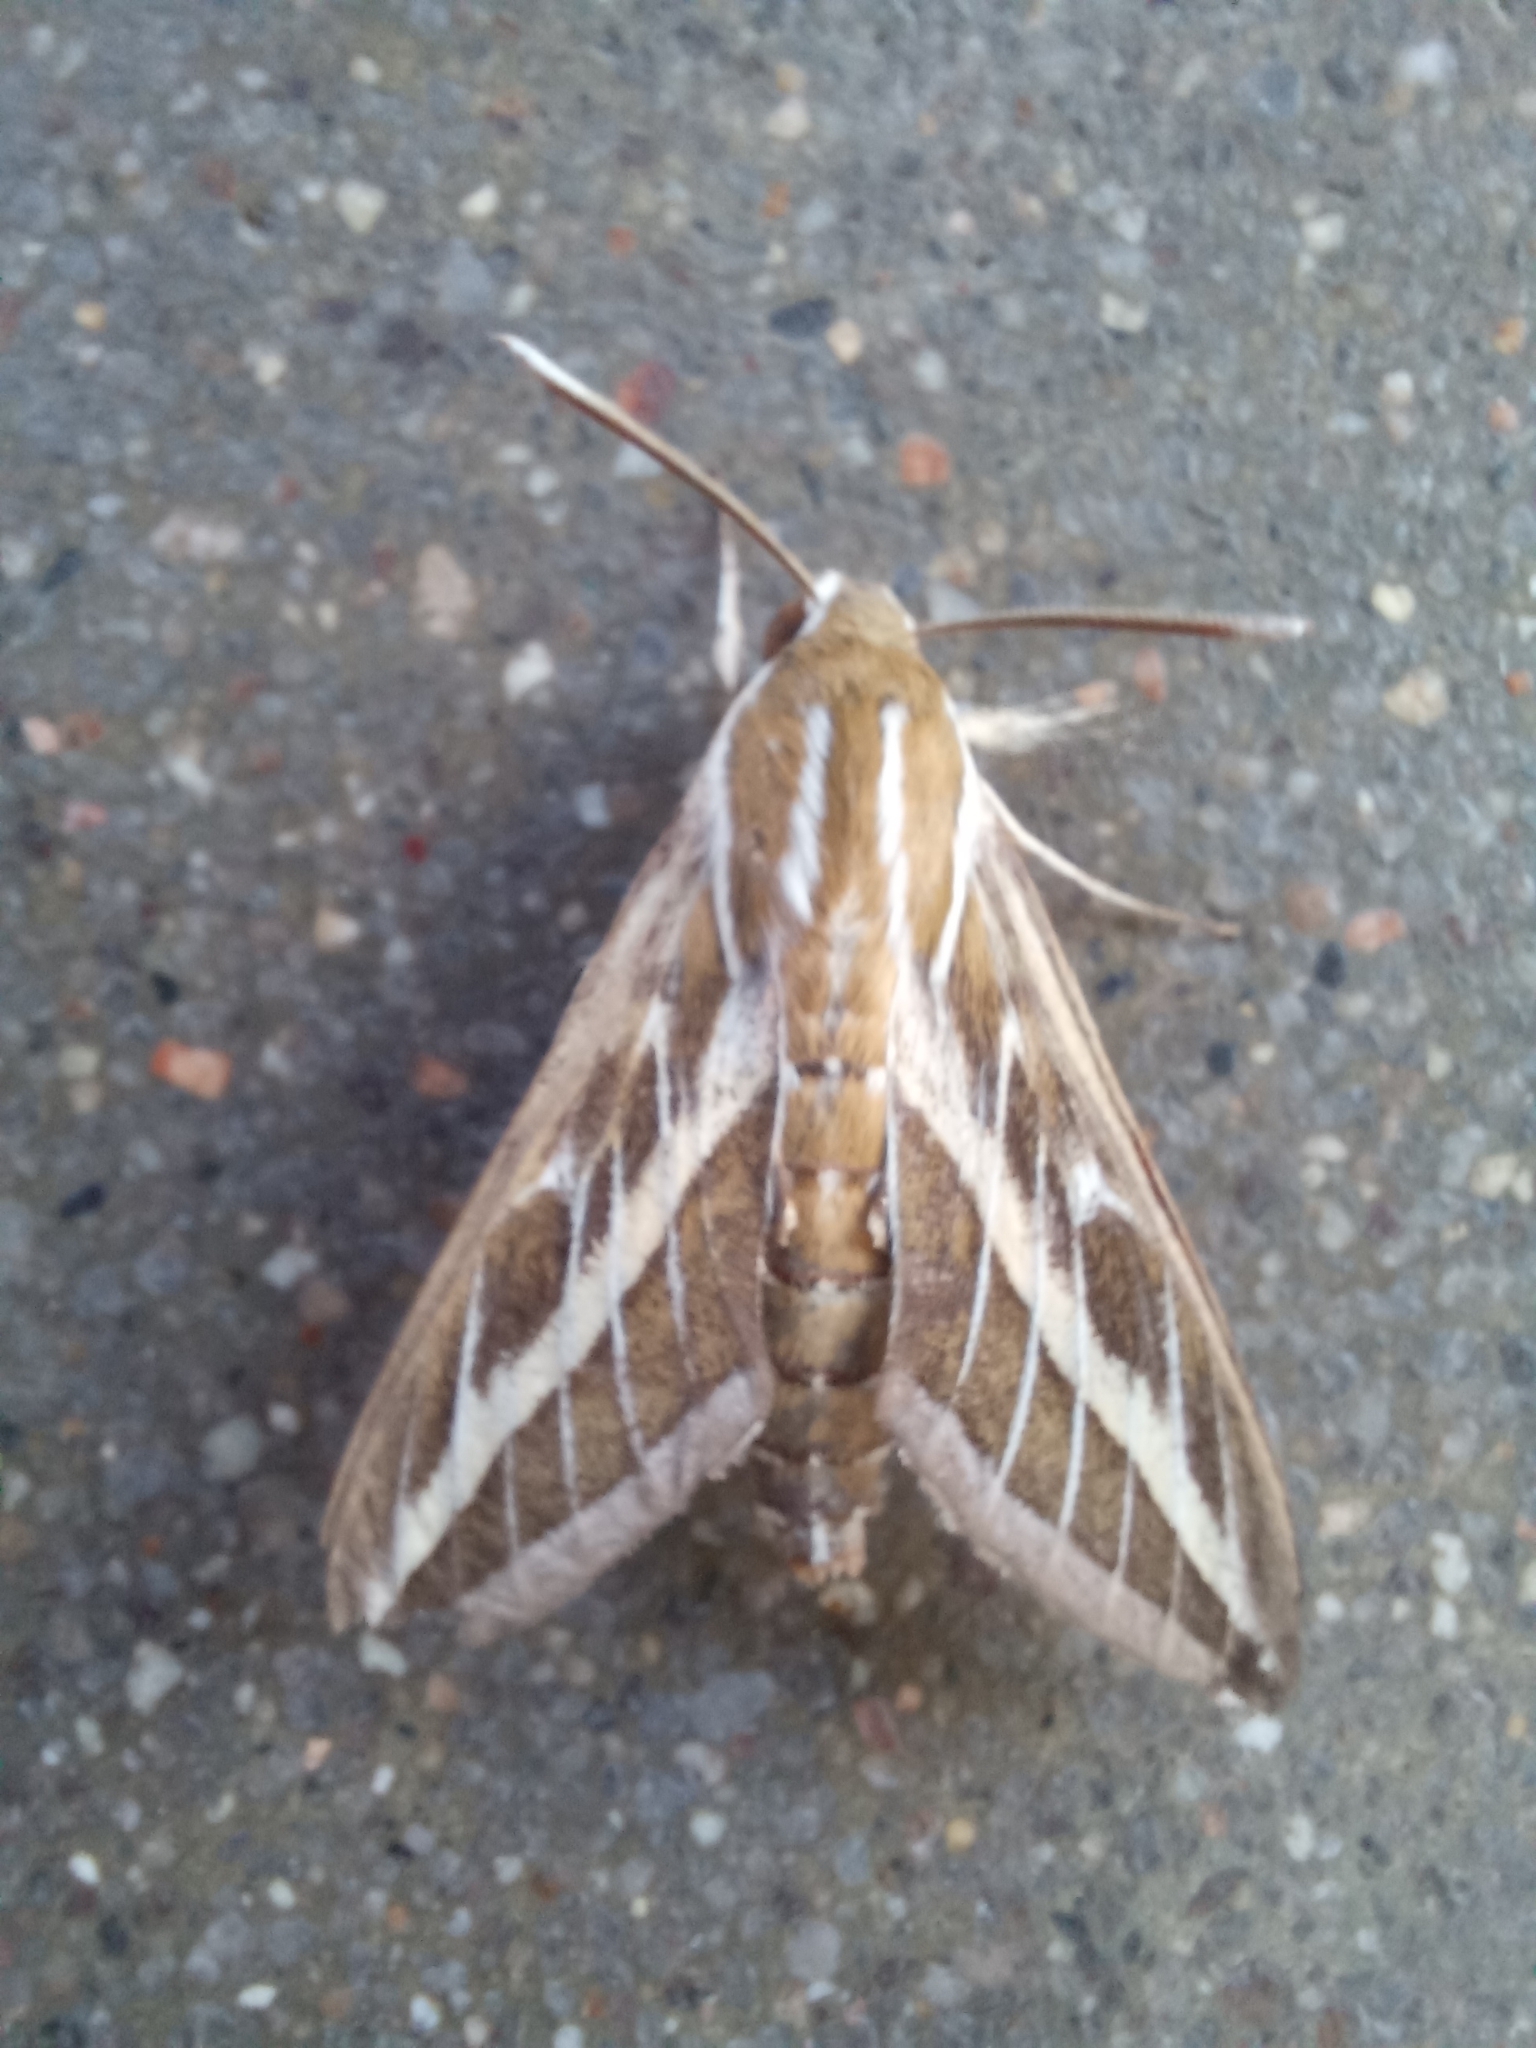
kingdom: Animalia
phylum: Arthropoda
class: Insecta
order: Lepidoptera
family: Sphingidae
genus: Hyles
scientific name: Hyles livornica
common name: Striped hawk-moth
